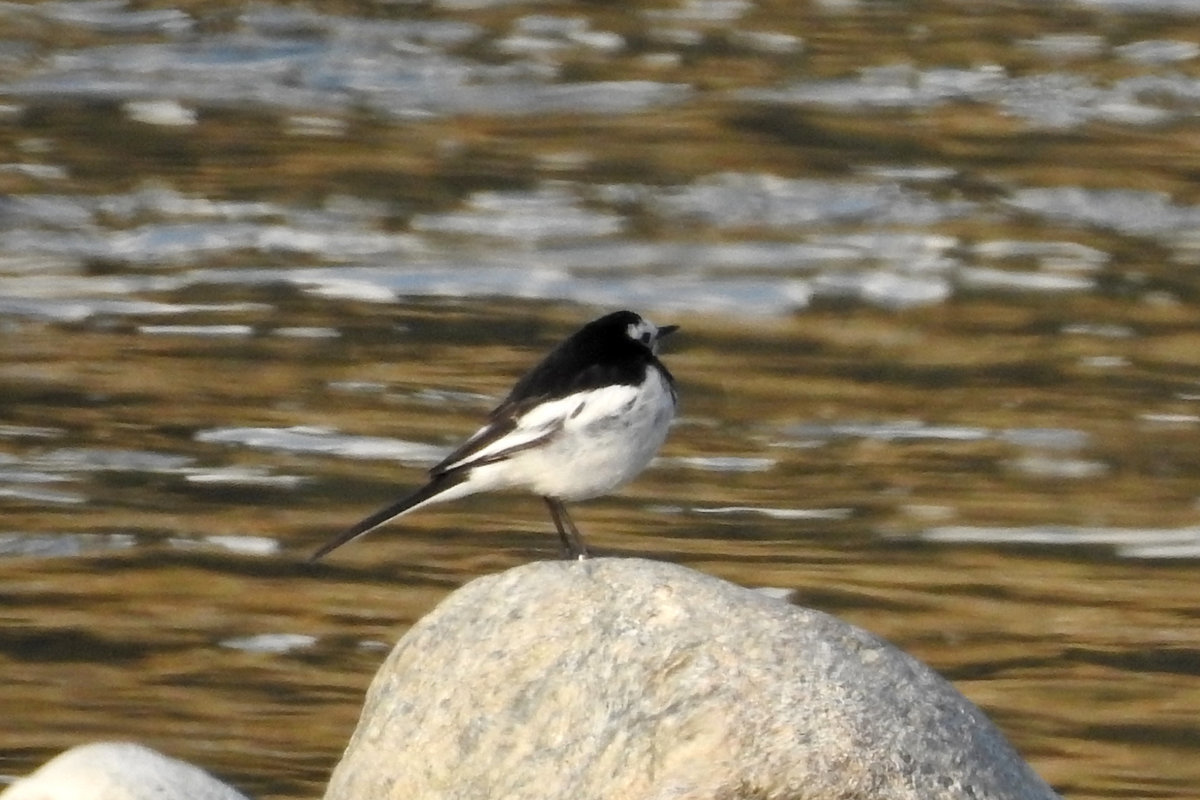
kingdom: Animalia
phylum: Chordata
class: Aves
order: Passeriformes
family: Motacillidae
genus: Motacilla
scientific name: Motacilla alba
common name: White wagtail
